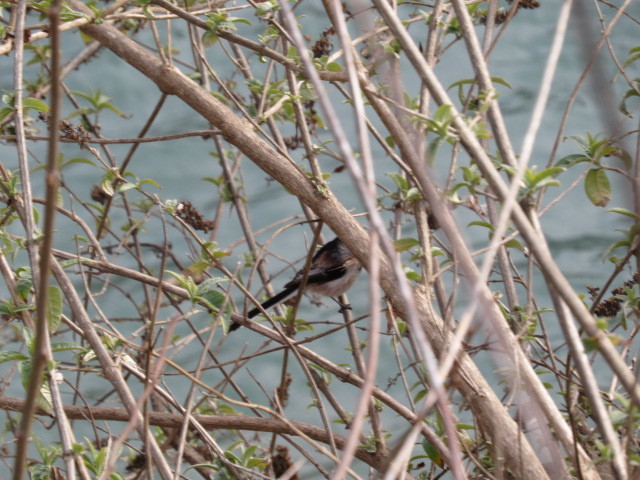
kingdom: Animalia
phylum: Chordata
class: Aves
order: Passeriformes
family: Aegithalidae
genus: Aegithalos
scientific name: Aegithalos caudatus
